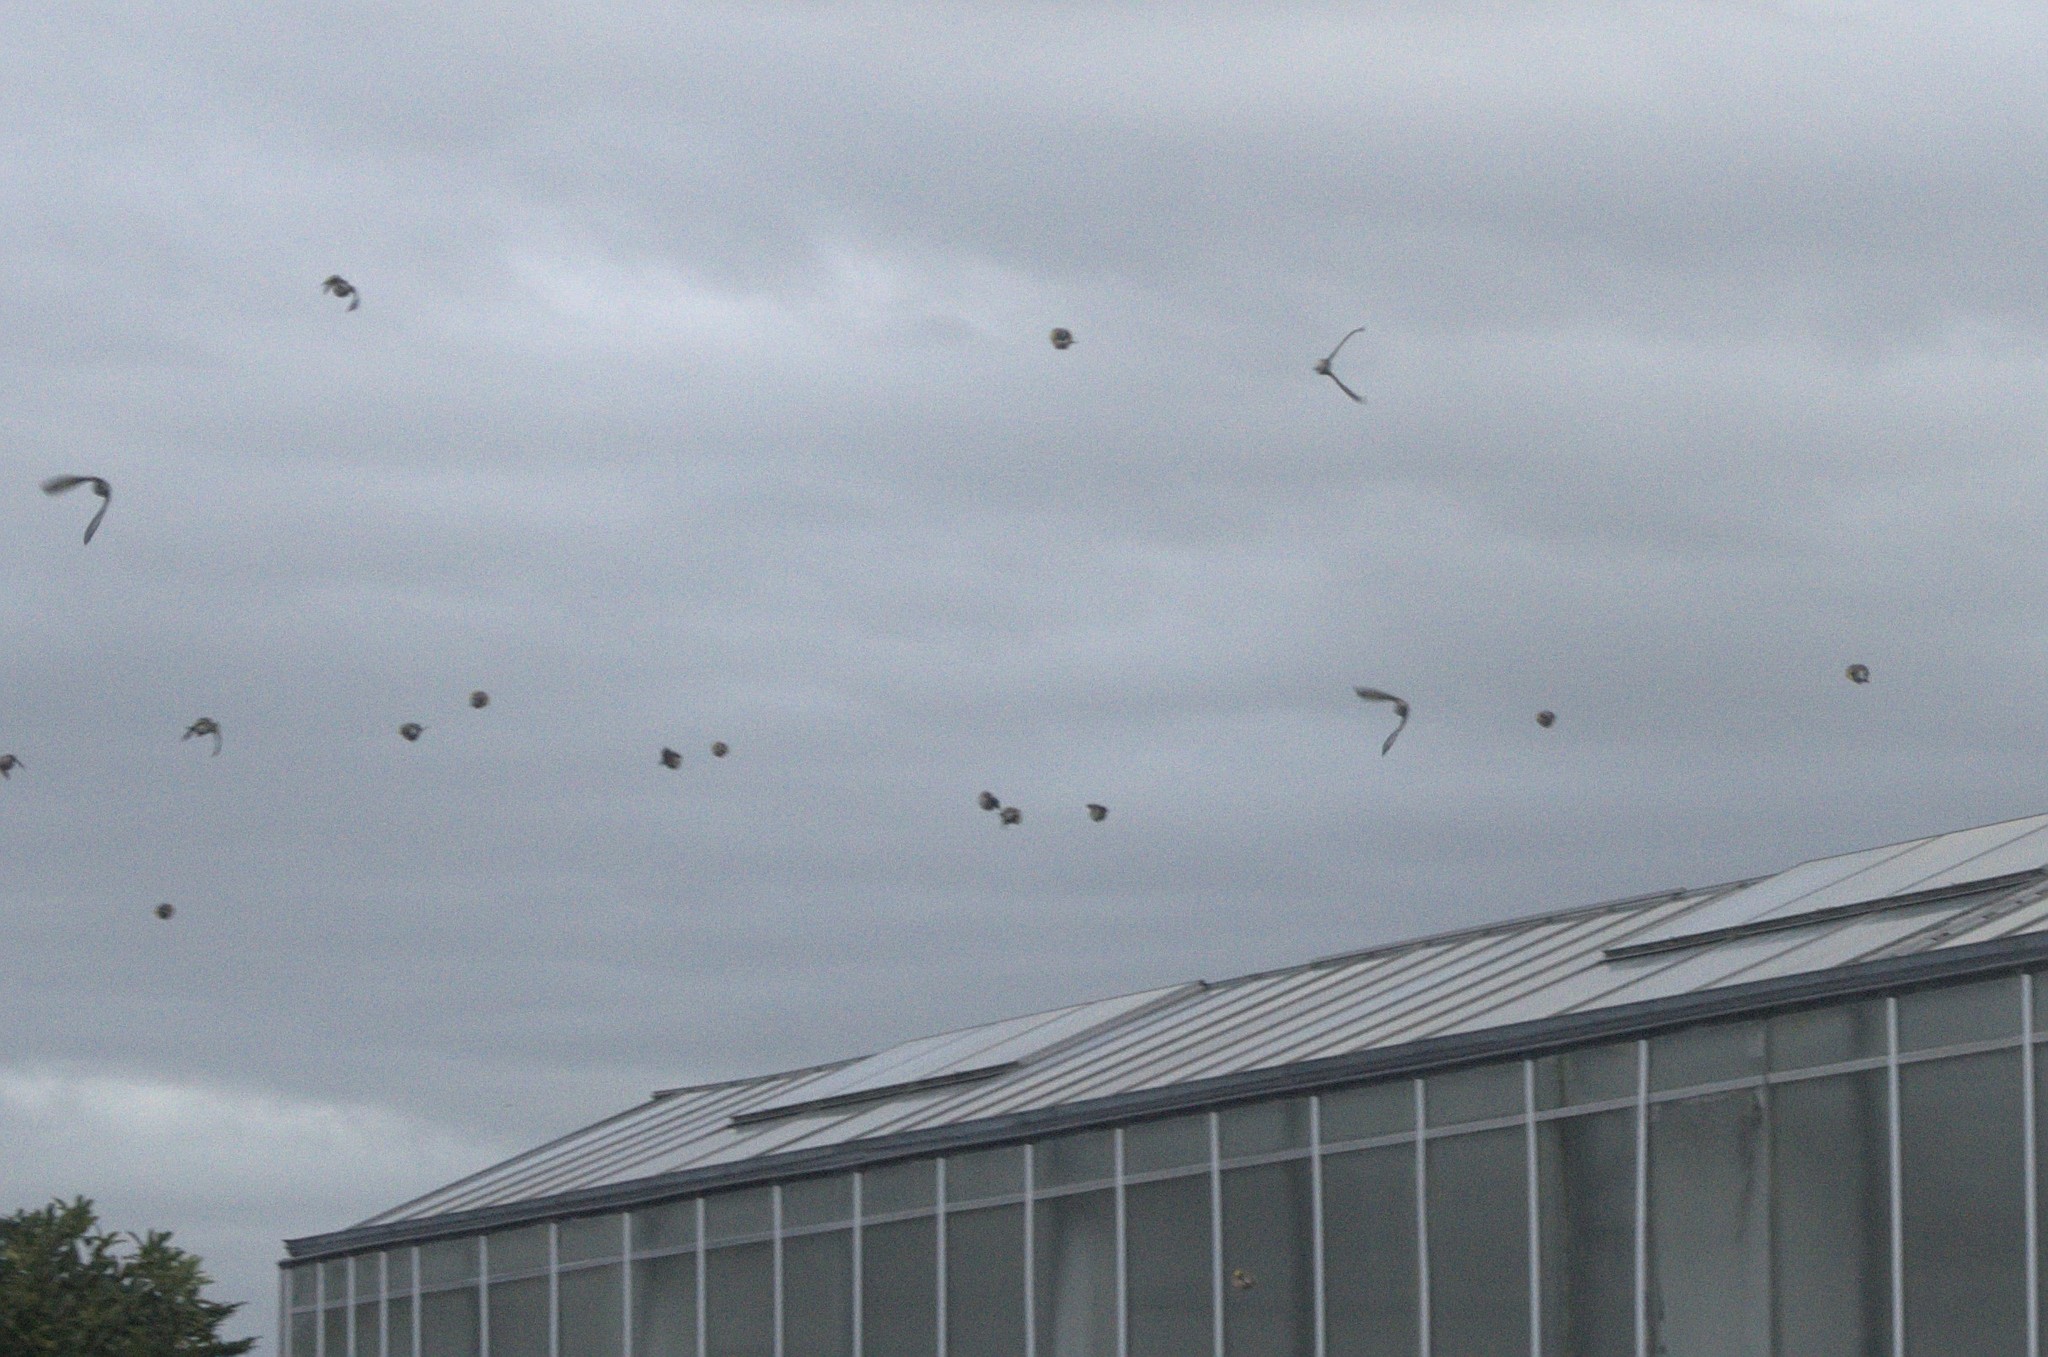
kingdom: Animalia
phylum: Chordata
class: Aves
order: Passeriformes
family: Fringillidae
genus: Carduelis
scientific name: Carduelis carduelis
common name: European goldfinch
